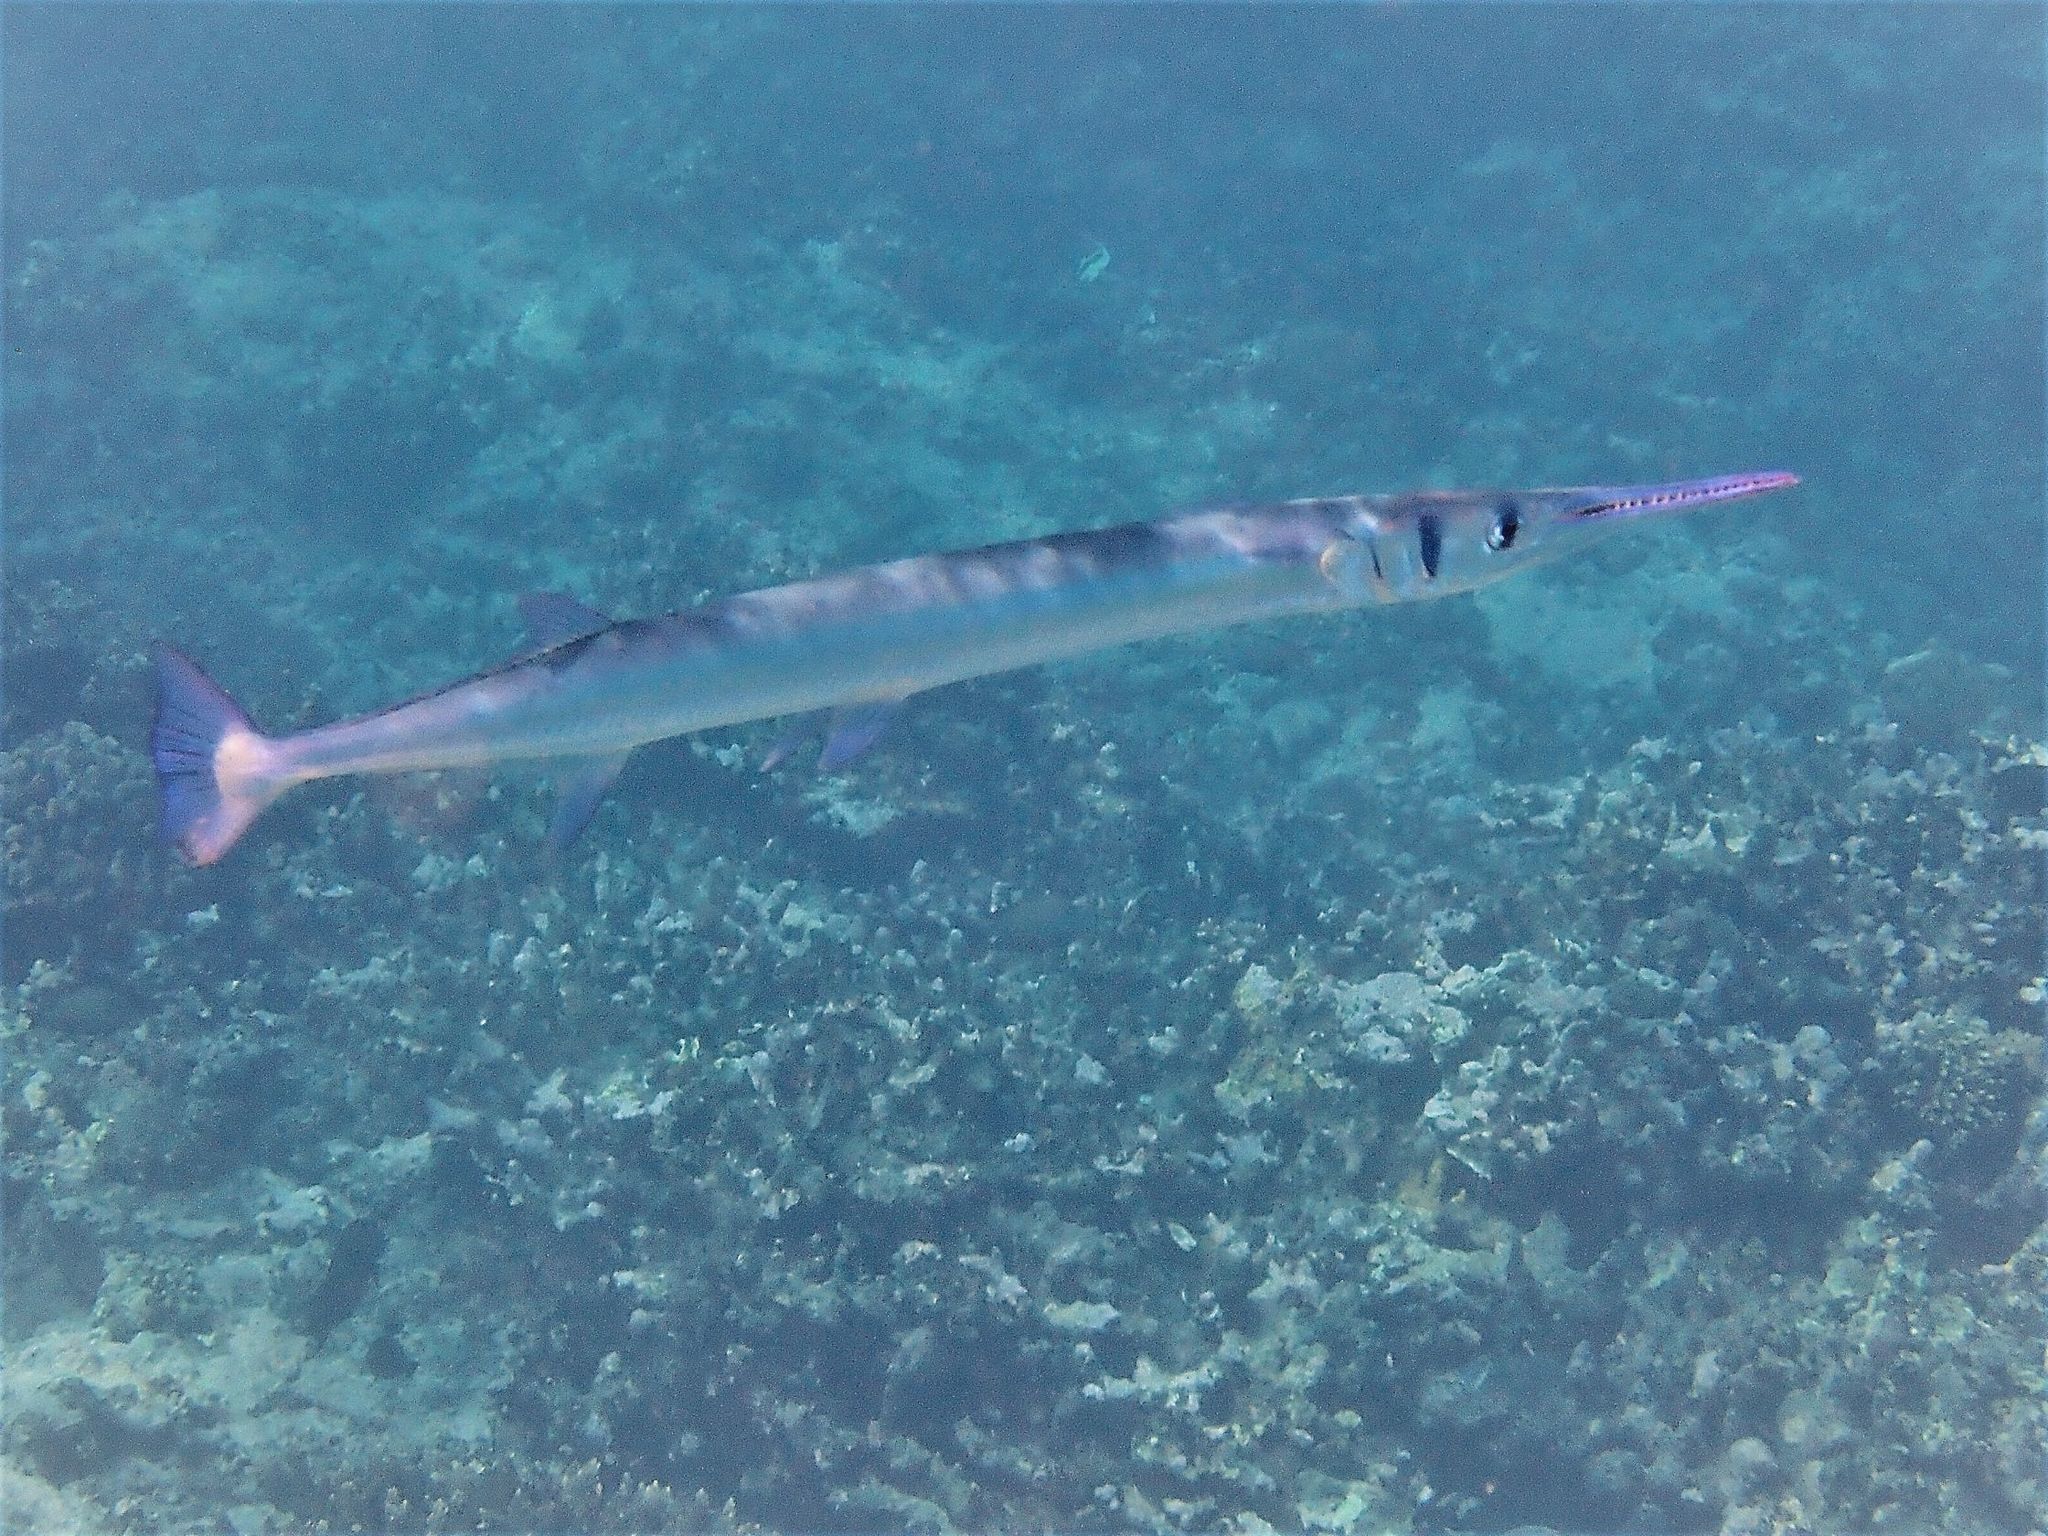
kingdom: Animalia
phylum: Chordata
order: Beloniformes
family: Belonidae
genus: Tylosurus
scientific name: Tylosurus crocodilus
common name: Houndfish
